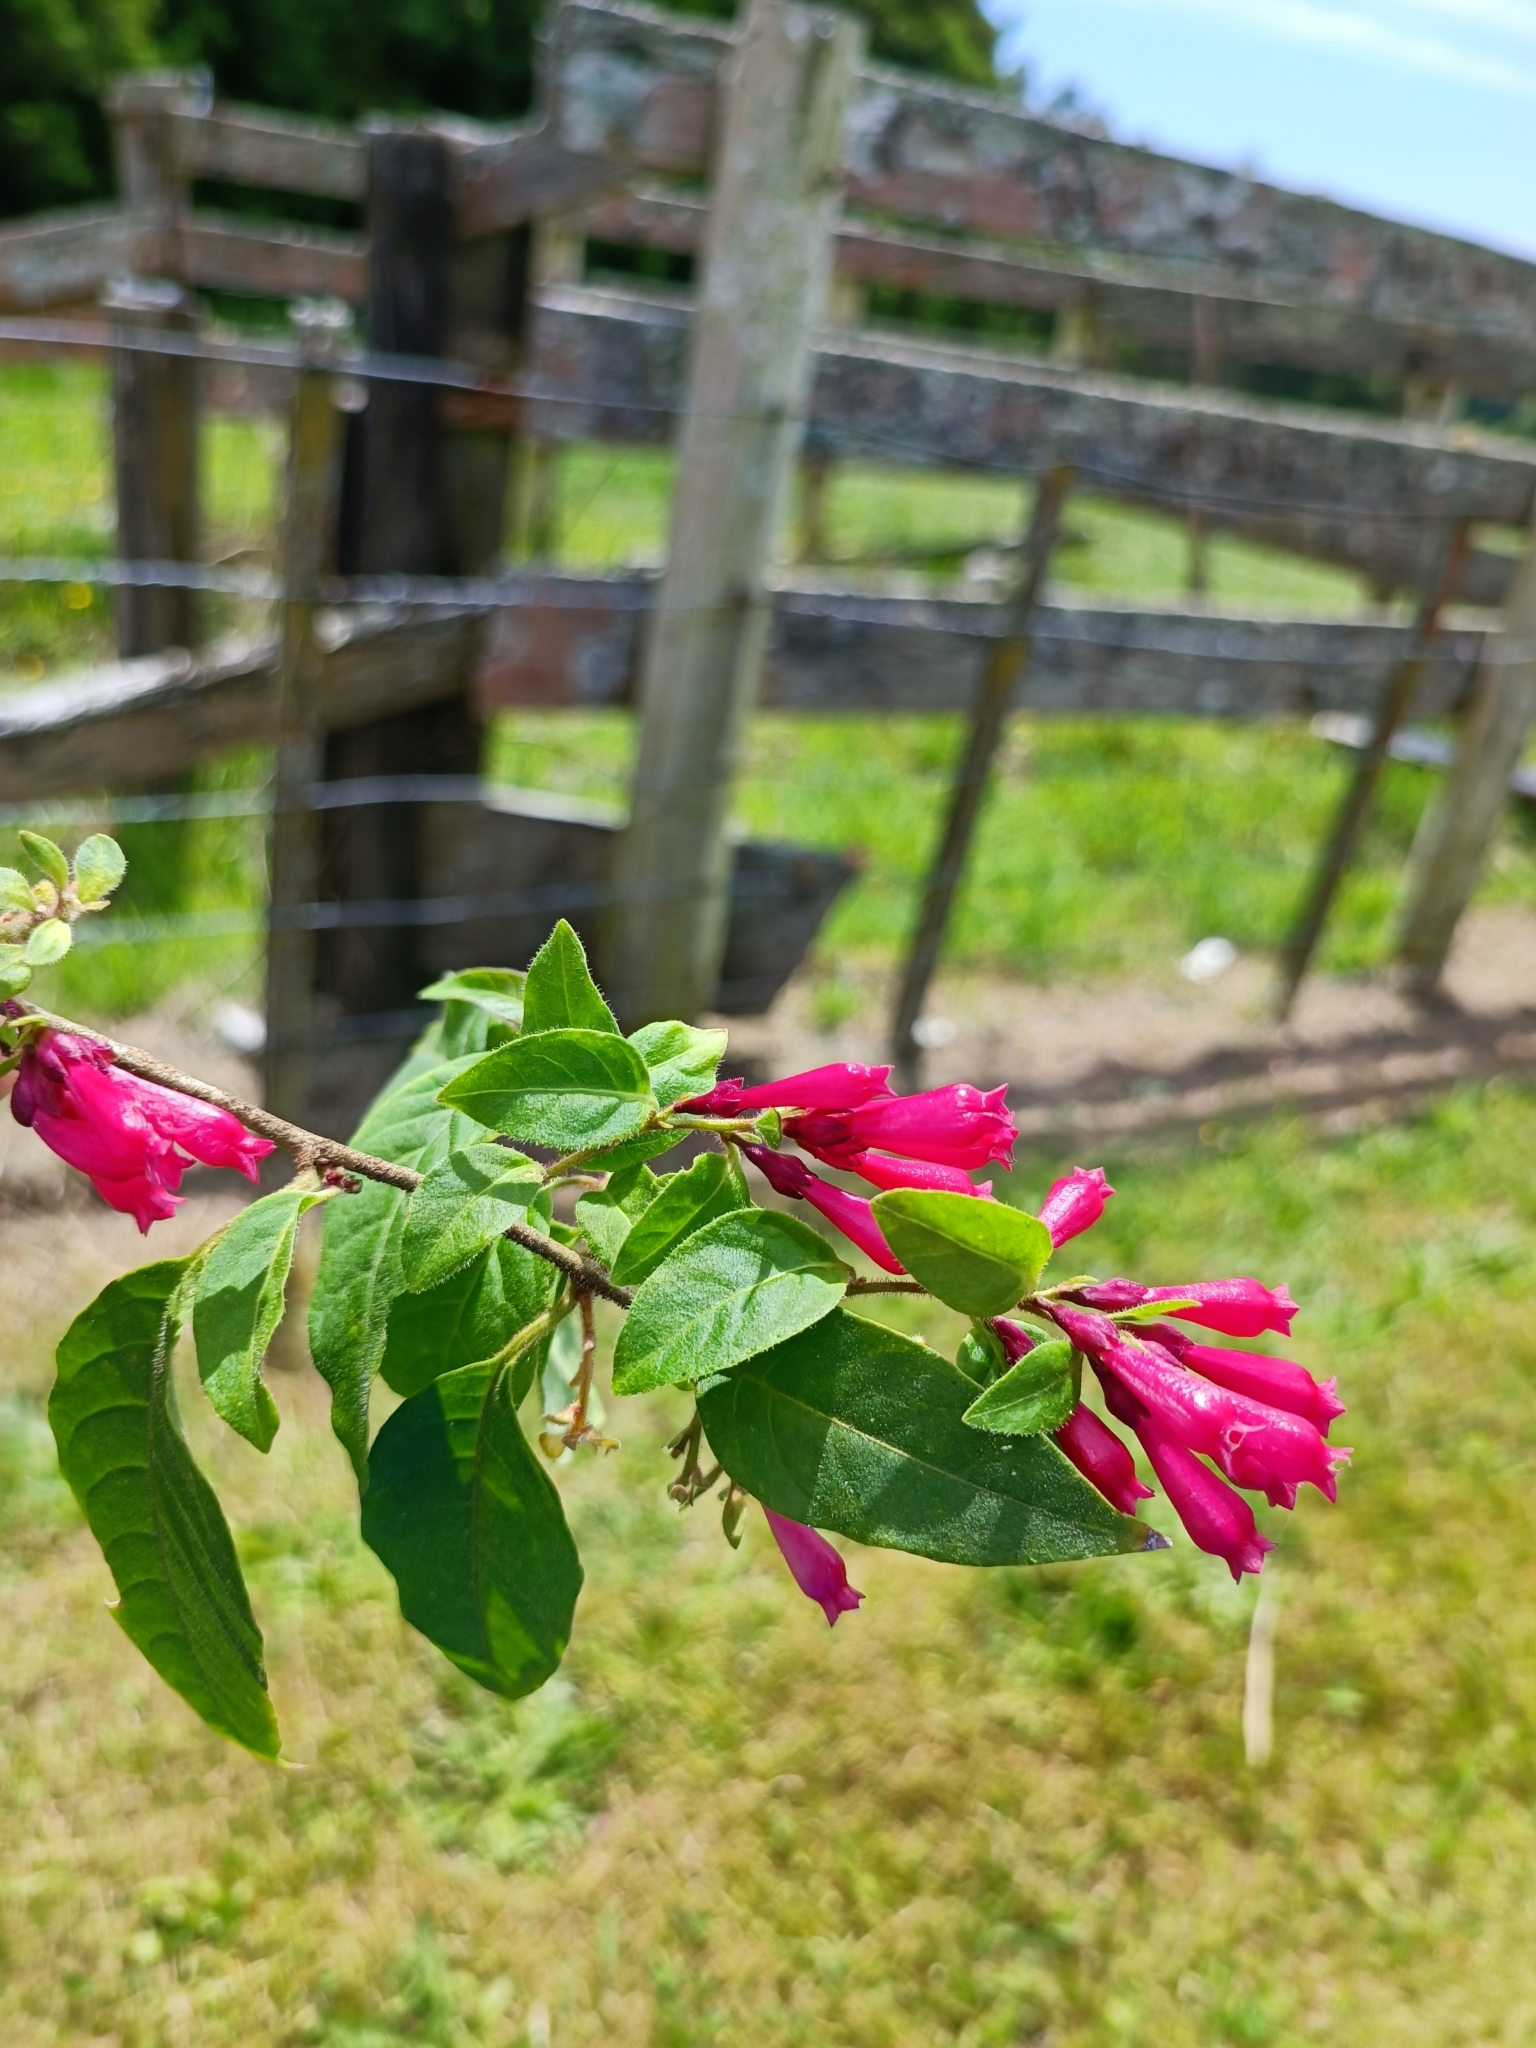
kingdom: Plantae
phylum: Tracheophyta
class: Magnoliopsida
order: Solanales
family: Solanaceae
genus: Cestrum
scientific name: Cestrum elegans
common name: Crimson cestrum
